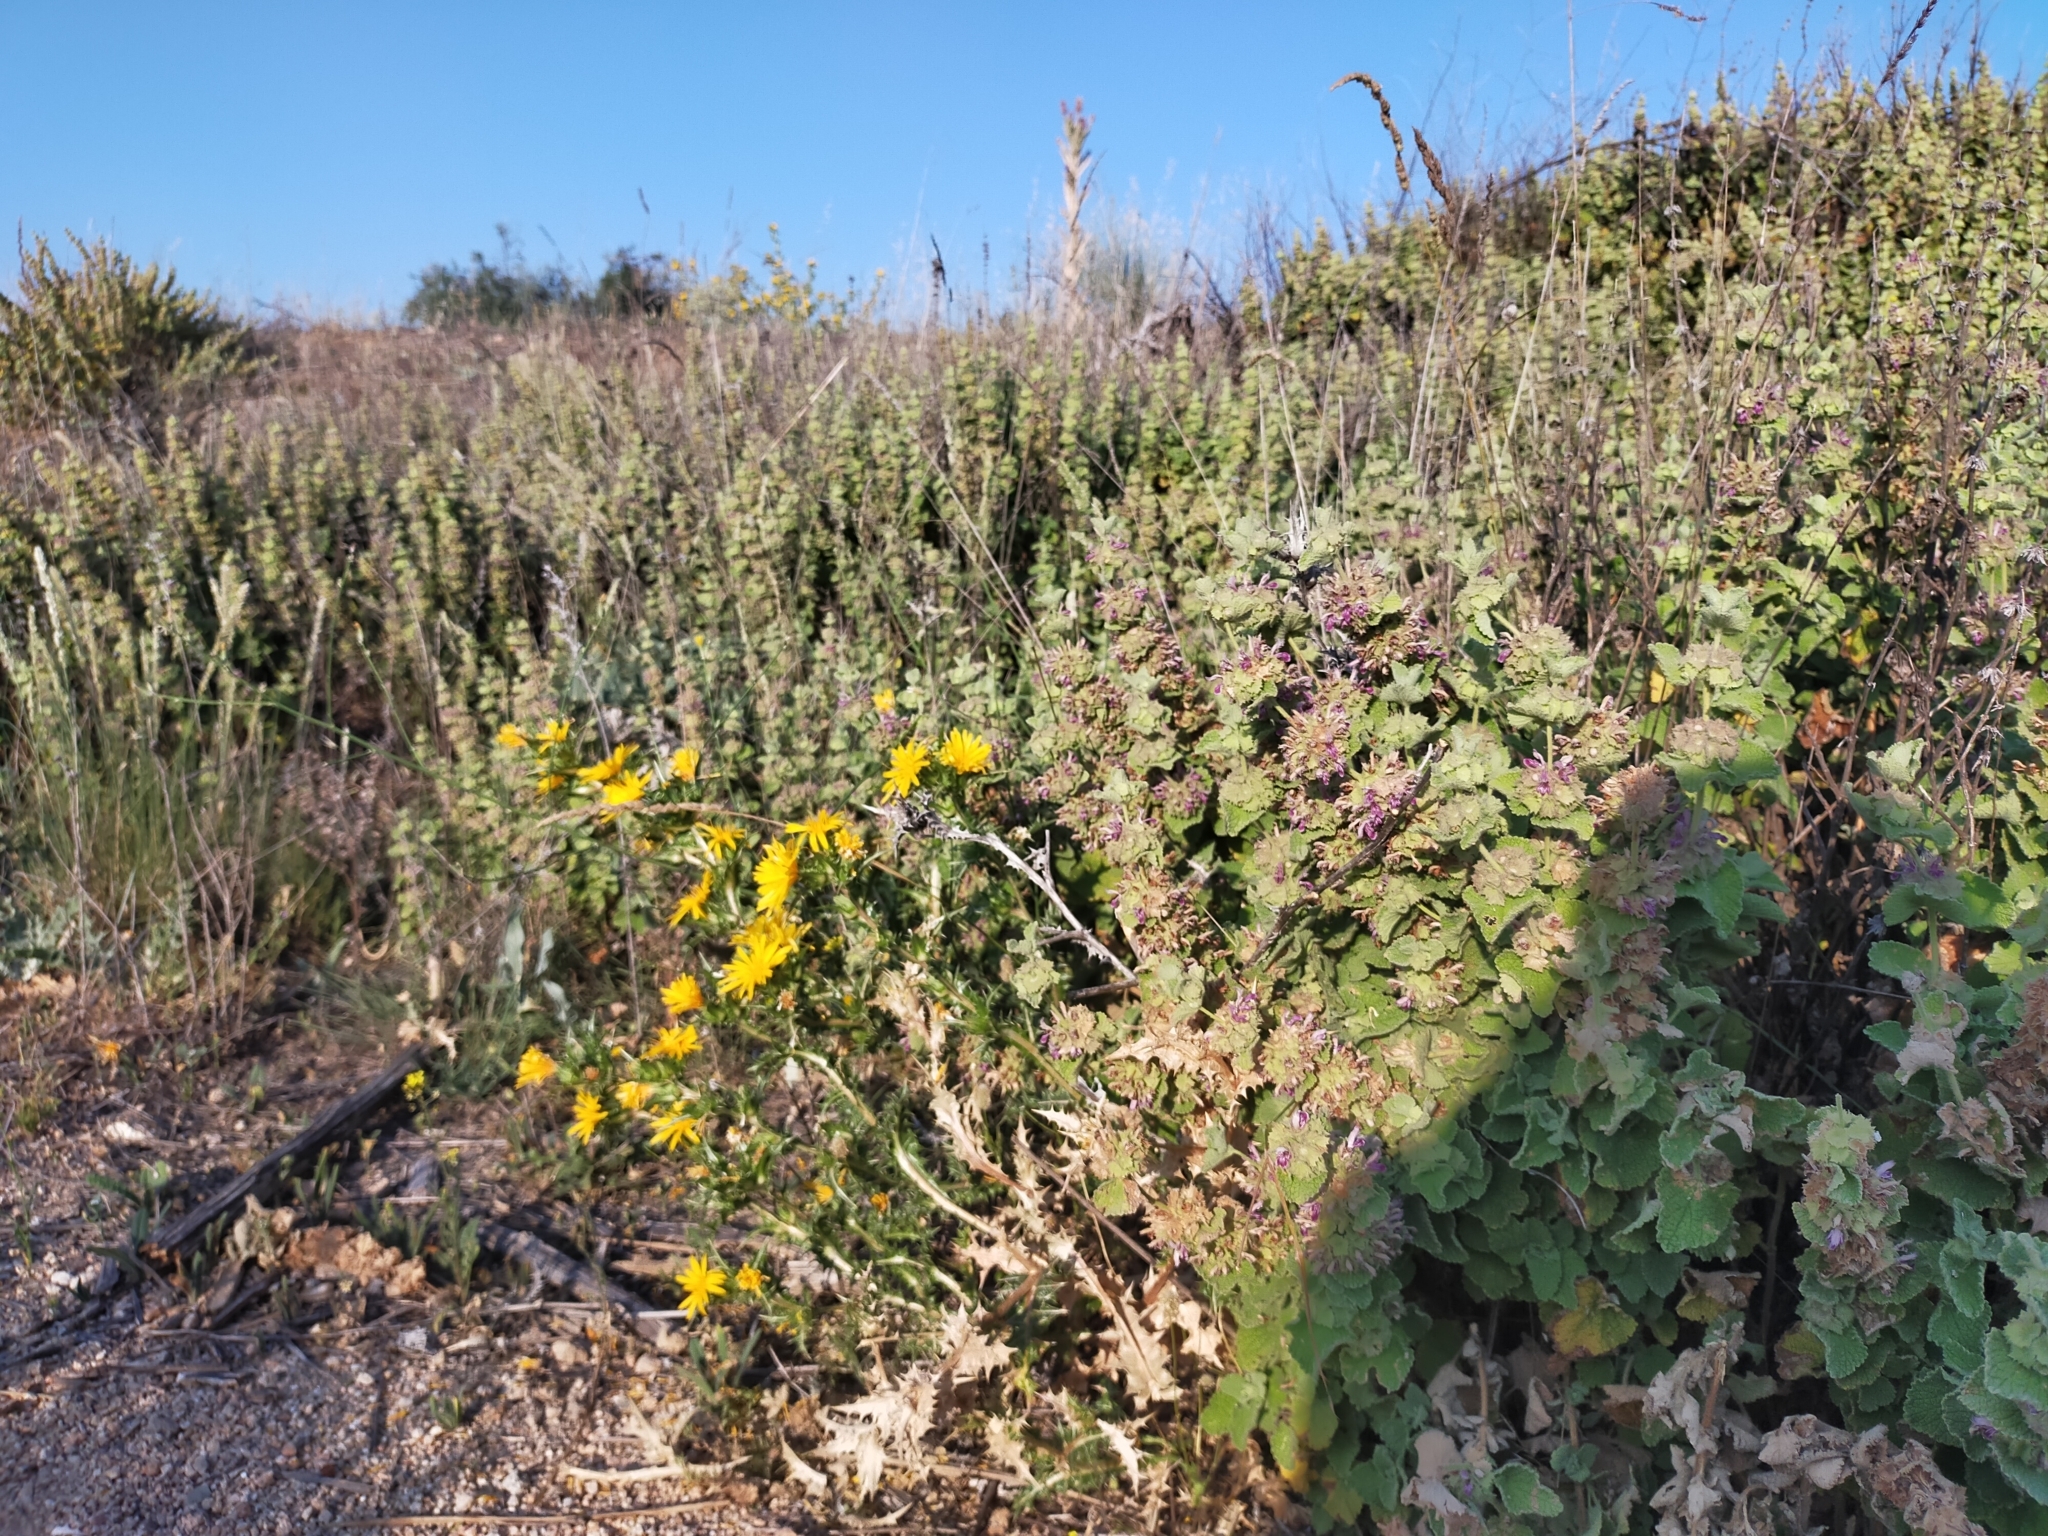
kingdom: Plantae
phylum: Tracheophyta
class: Magnoliopsida
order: Lamiales
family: Lamiaceae
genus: Pseudodictamnus
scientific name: Pseudodictamnus hirsutus
